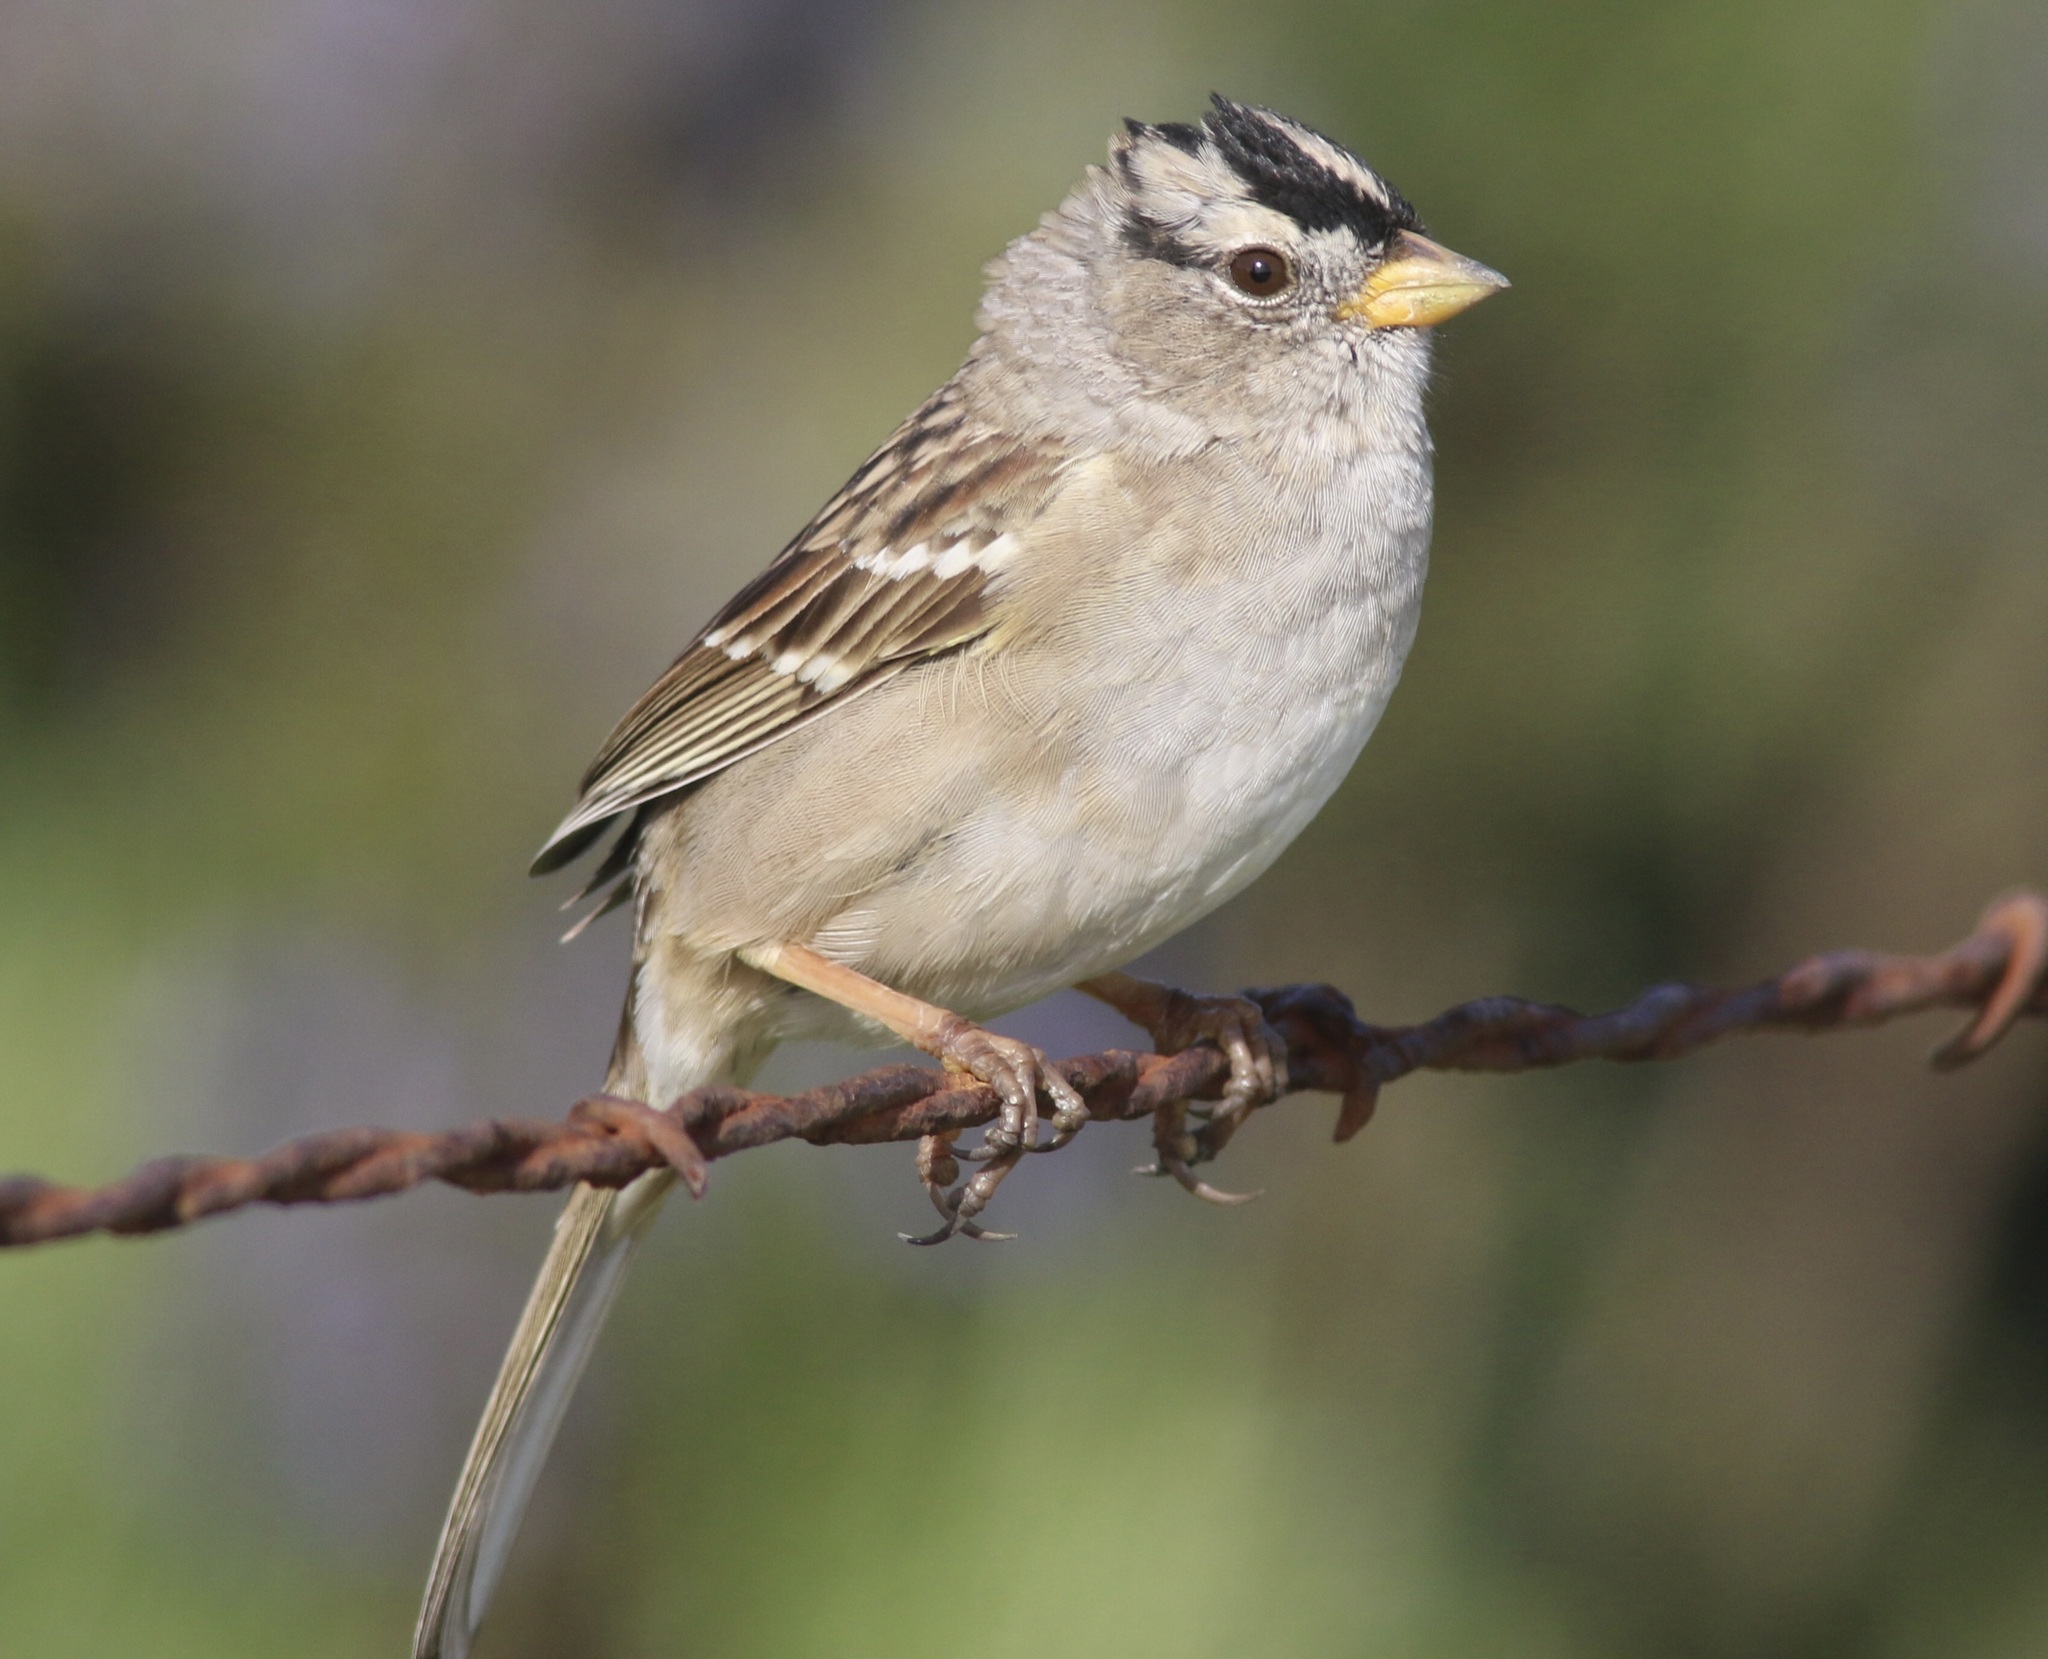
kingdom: Animalia
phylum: Chordata
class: Aves
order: Passeriformes
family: Passerellidae
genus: Zonotrichia
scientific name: Zonotrichia leucophrys
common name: White-crowned sparrow
